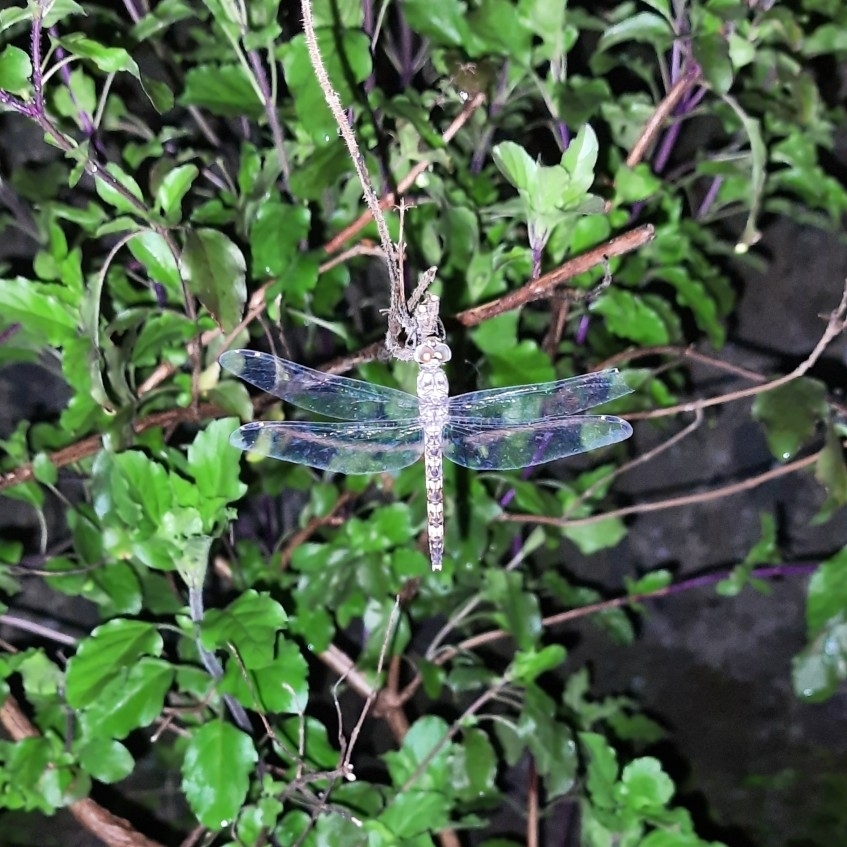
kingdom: Animalia
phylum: Arthropoda
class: Insecta
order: Odonata
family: Libellulidae
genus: Bradinopyga
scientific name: Bradinopyga geminata
